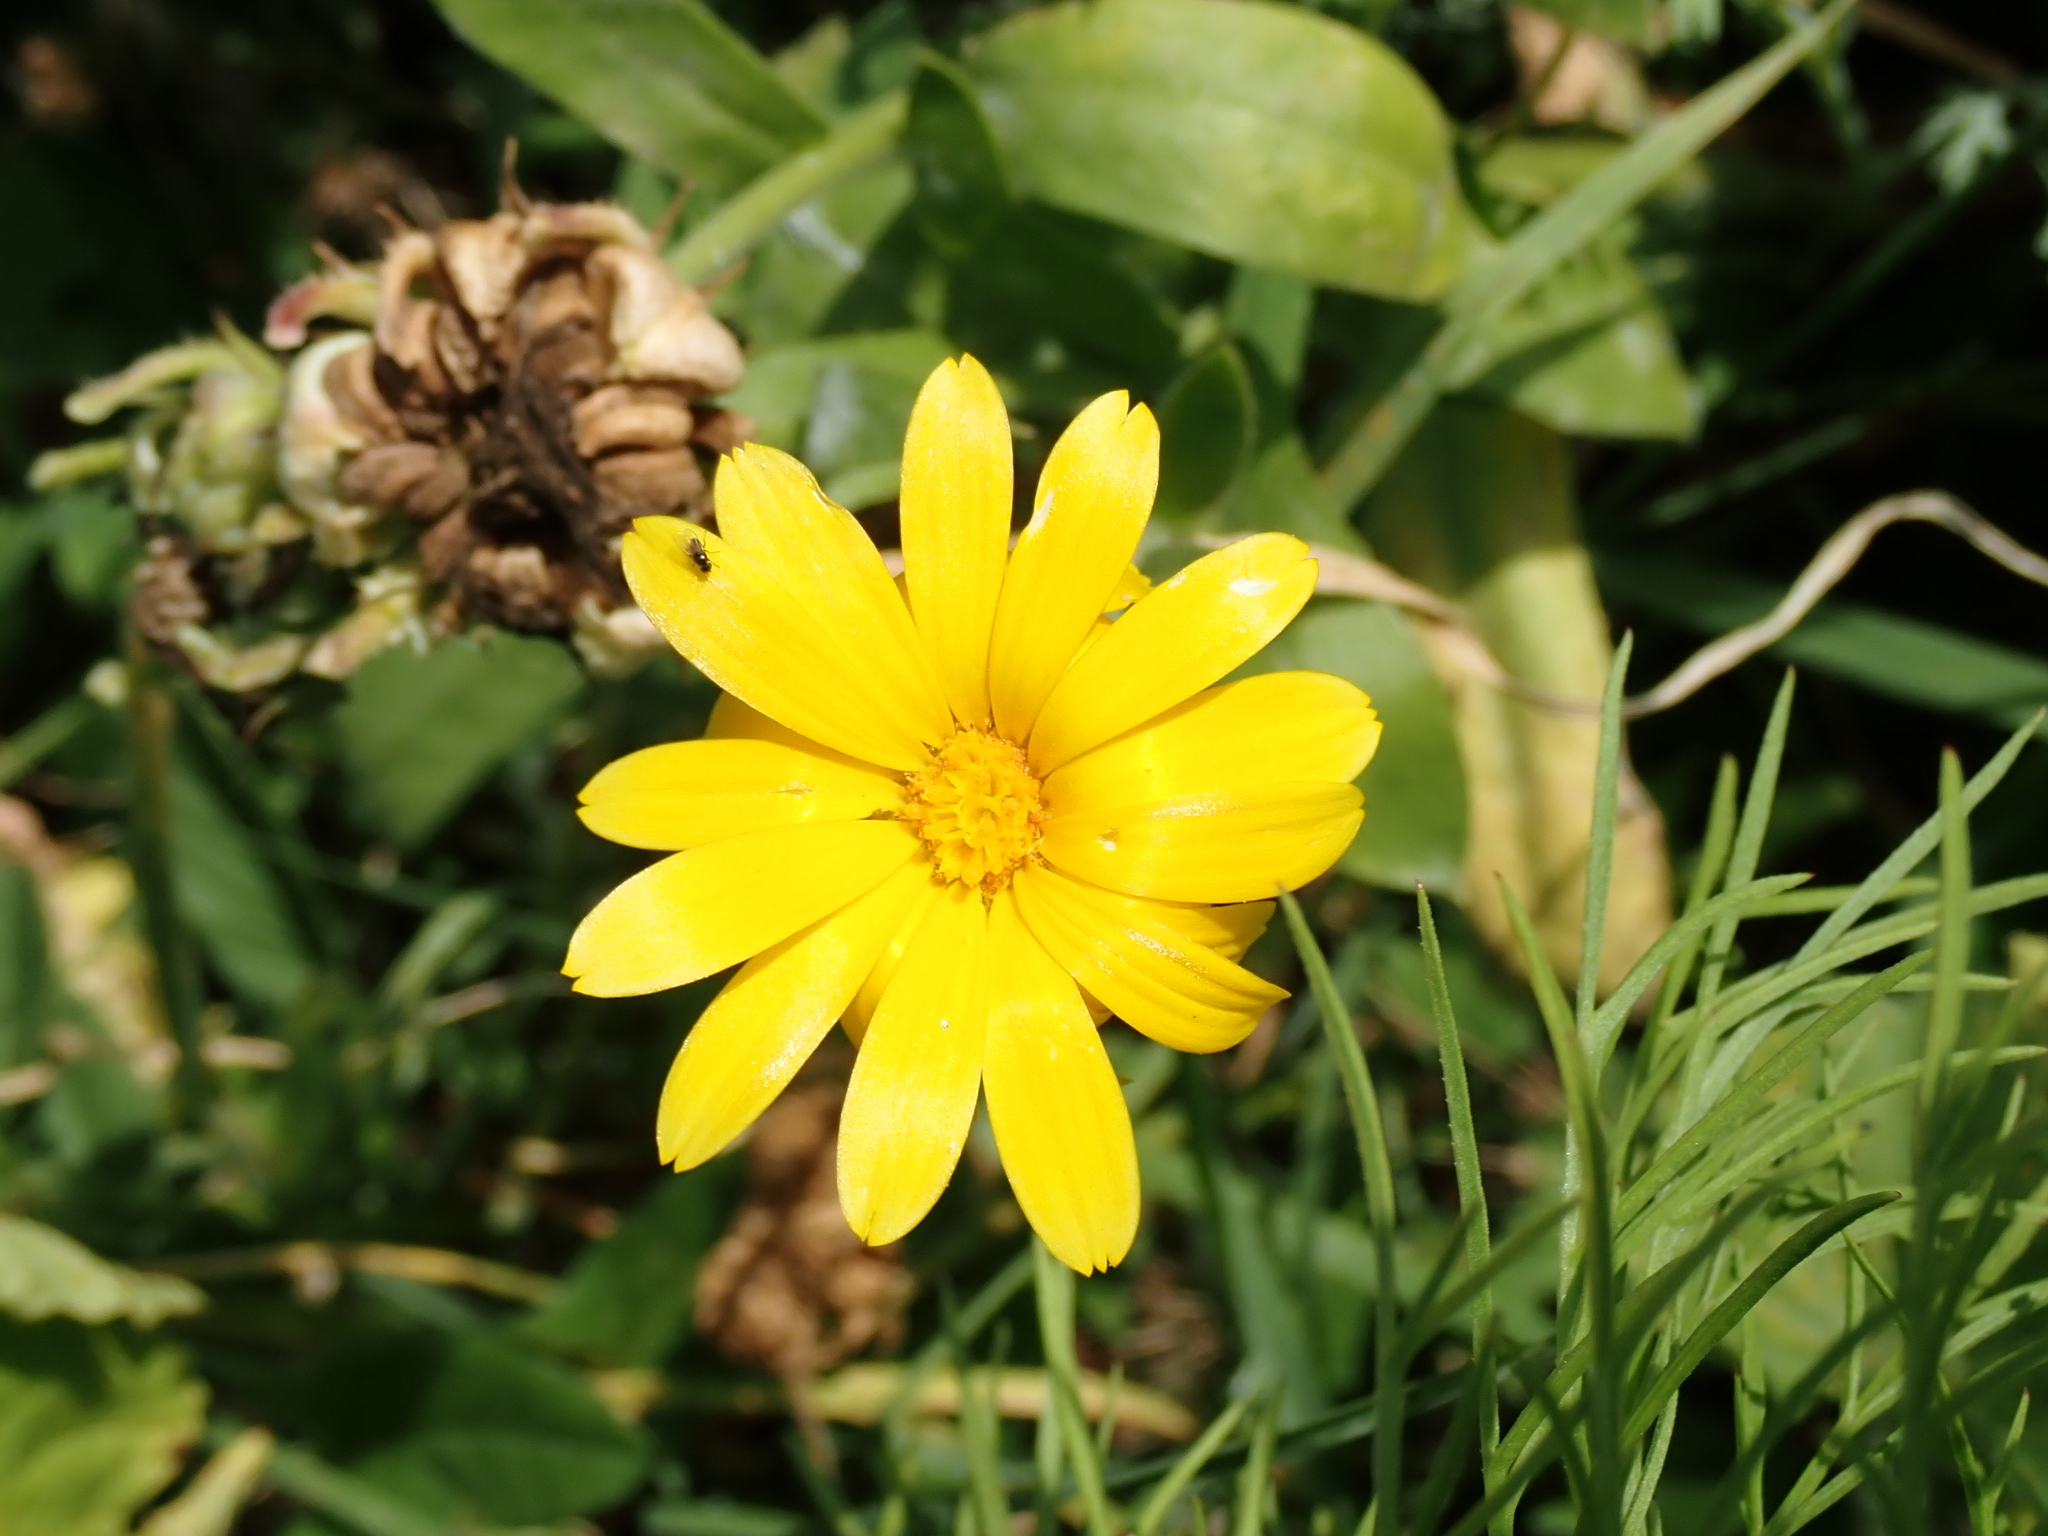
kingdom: Plantae
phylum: Tracheophyta
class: Magnoliopsida
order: Asterales
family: Asteraceae
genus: Calendula
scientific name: Calendula officinalis
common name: Pot marigold
